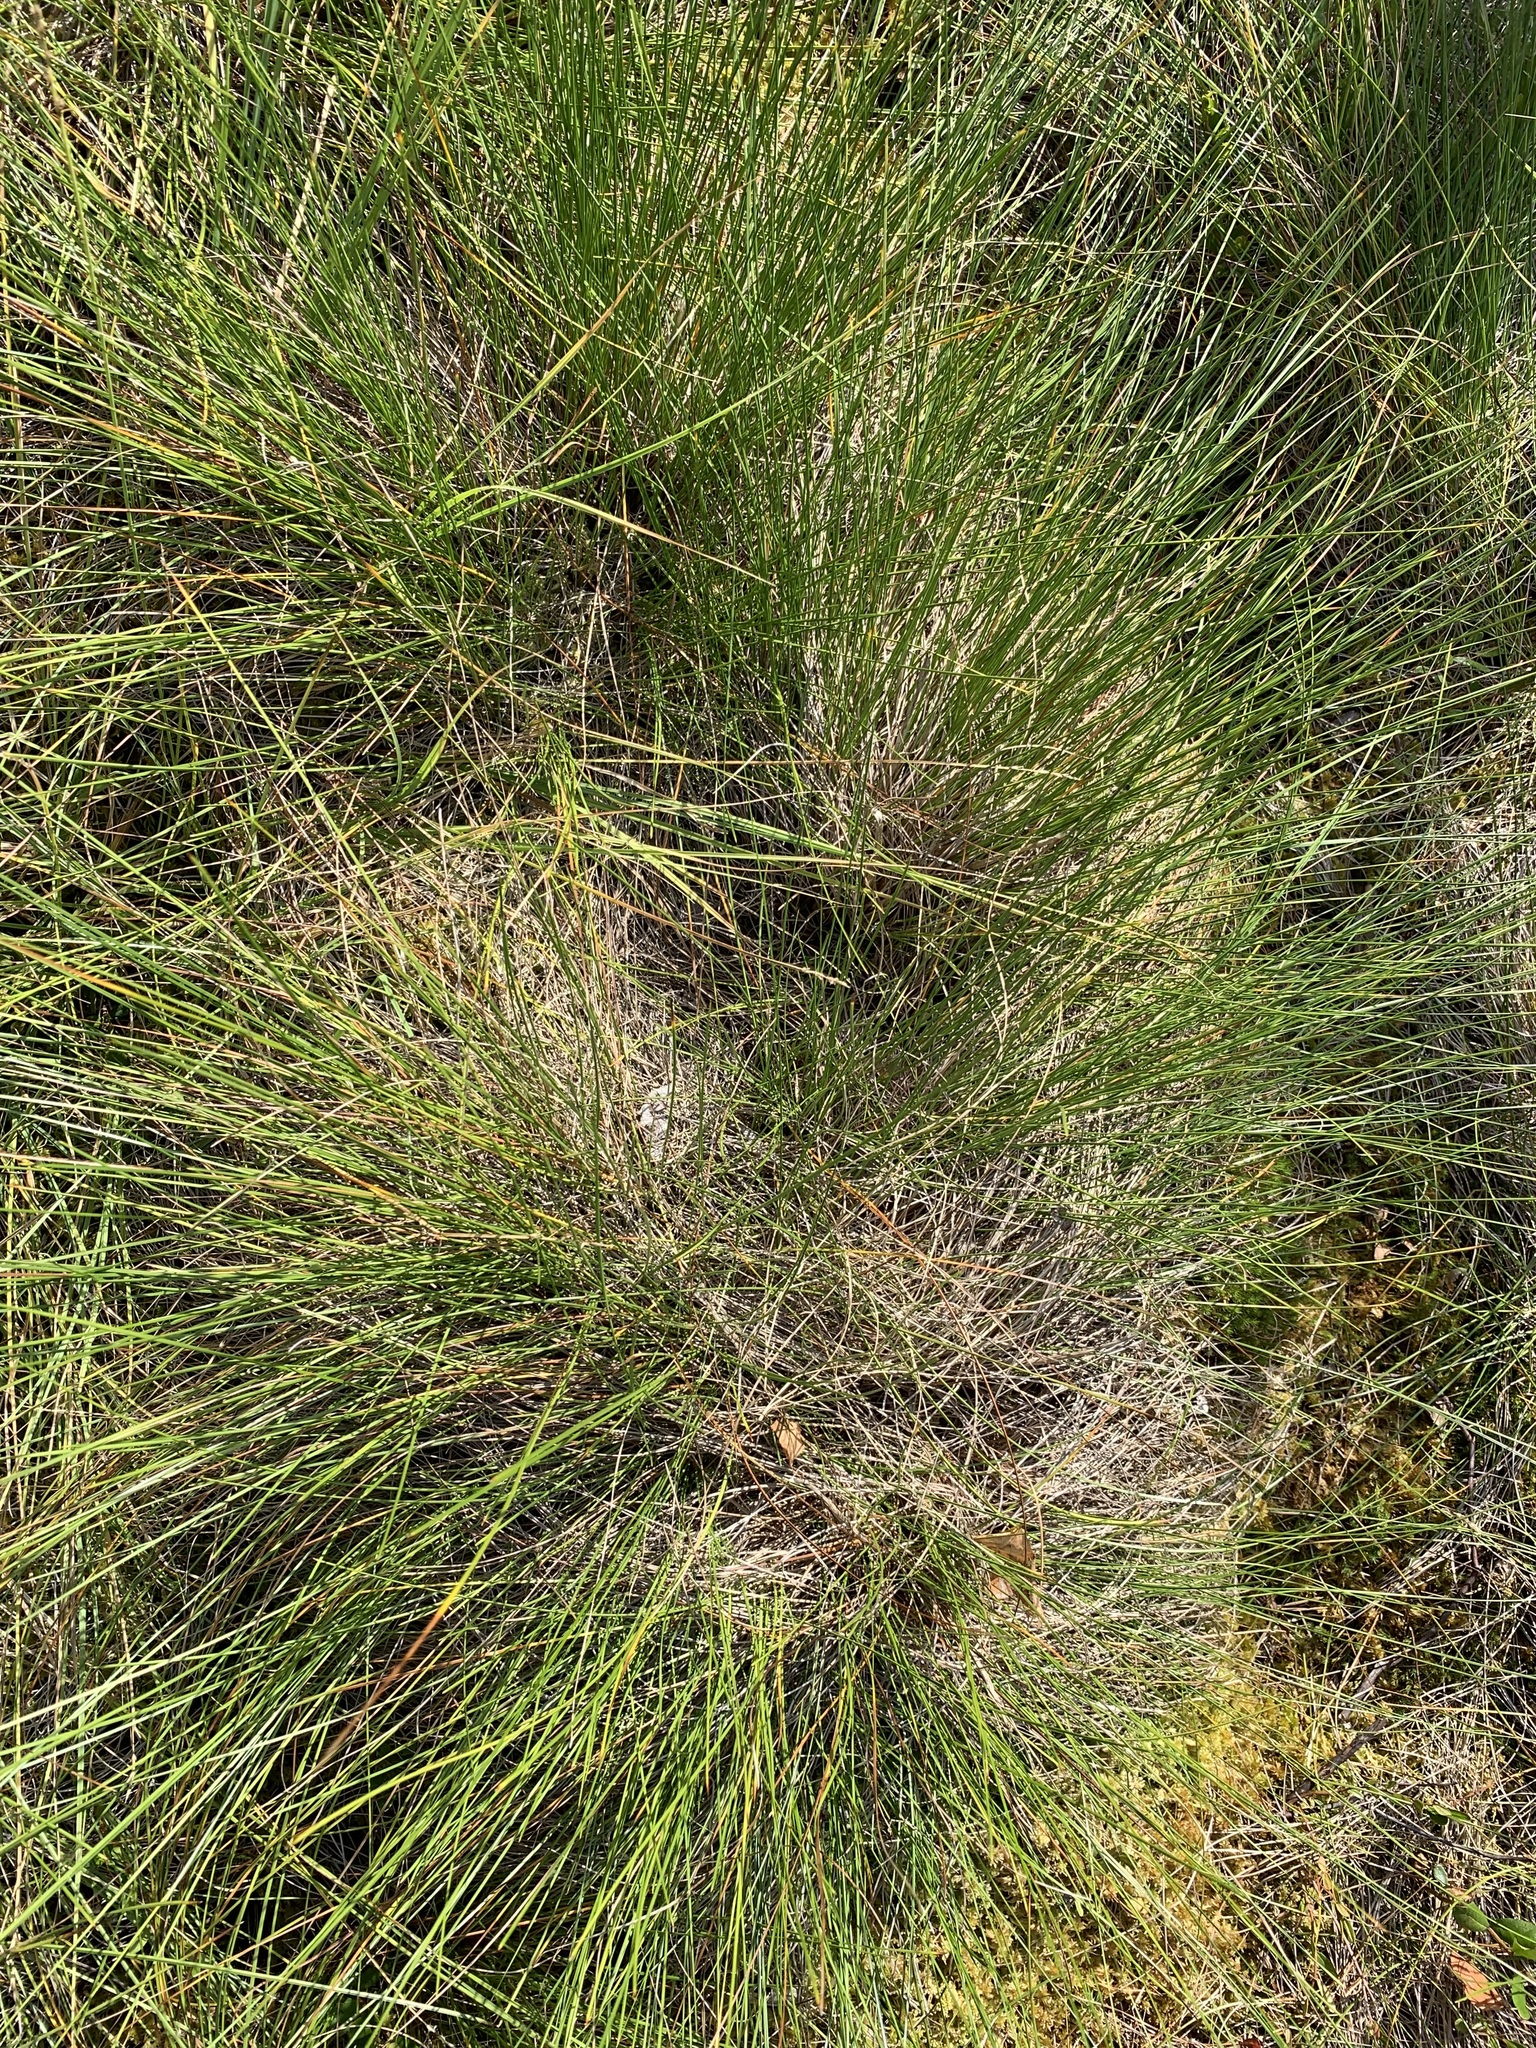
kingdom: Plantae
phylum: Tracheophyta
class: Liliopsida
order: Poales
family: Cyperaceae
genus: Eriophorum
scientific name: Eriophorum vaginatum
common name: Hare's-tail cottongrass
